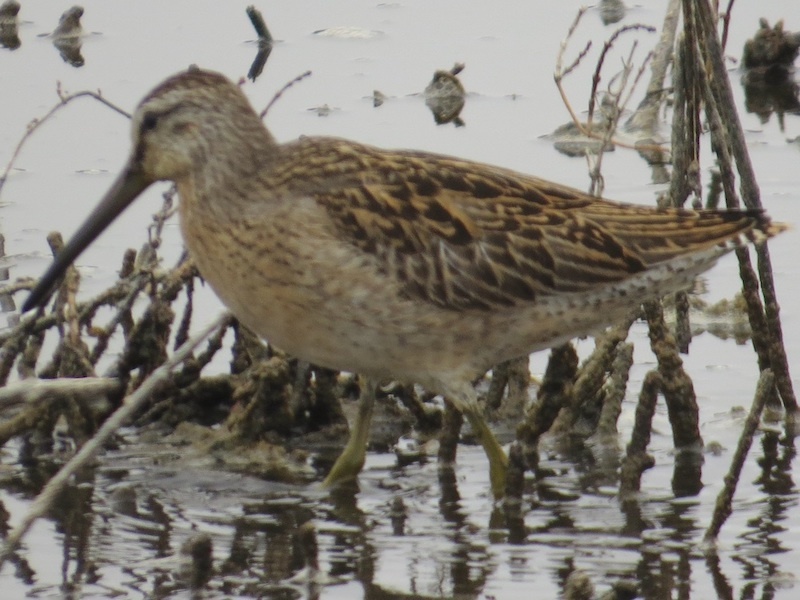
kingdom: Animalia
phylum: Chordata
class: Aves
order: Charadriiformes
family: Scolopacidae
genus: Limnodromus
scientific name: Limnodromus griseus
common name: Short-billed dowitcher
